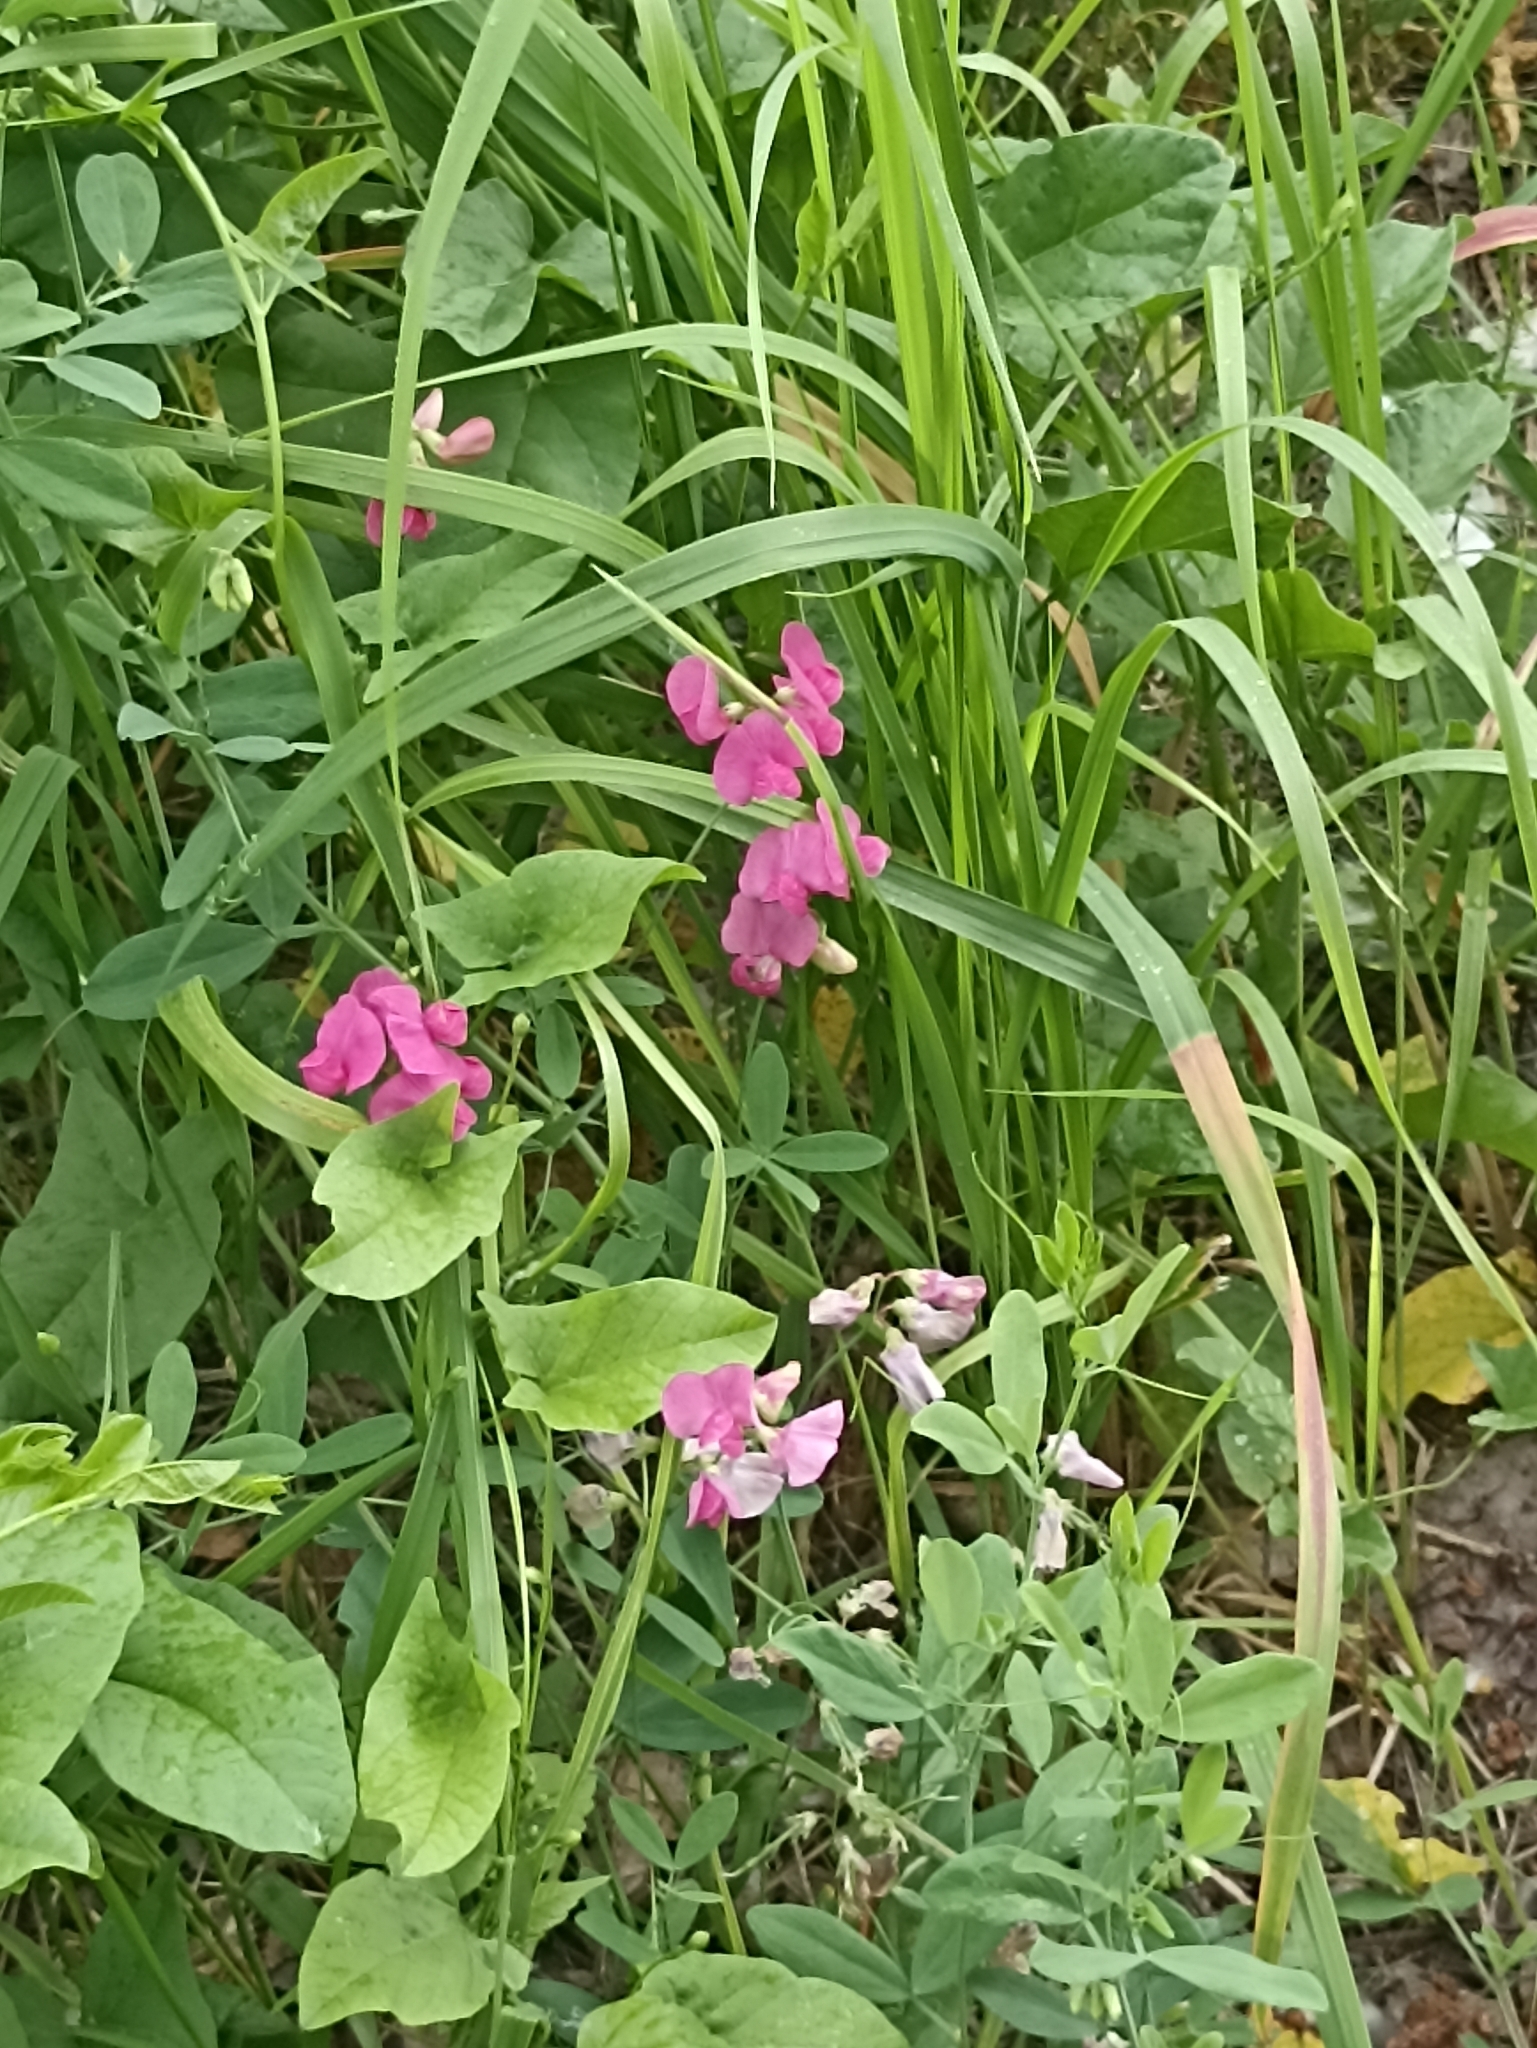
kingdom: Plantae
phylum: Tracheophyta
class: Magnoliopsida
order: Fabales
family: Fabaceae
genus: Lathyrus
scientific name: Lathyrus tuberosus
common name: Tuberous pea
